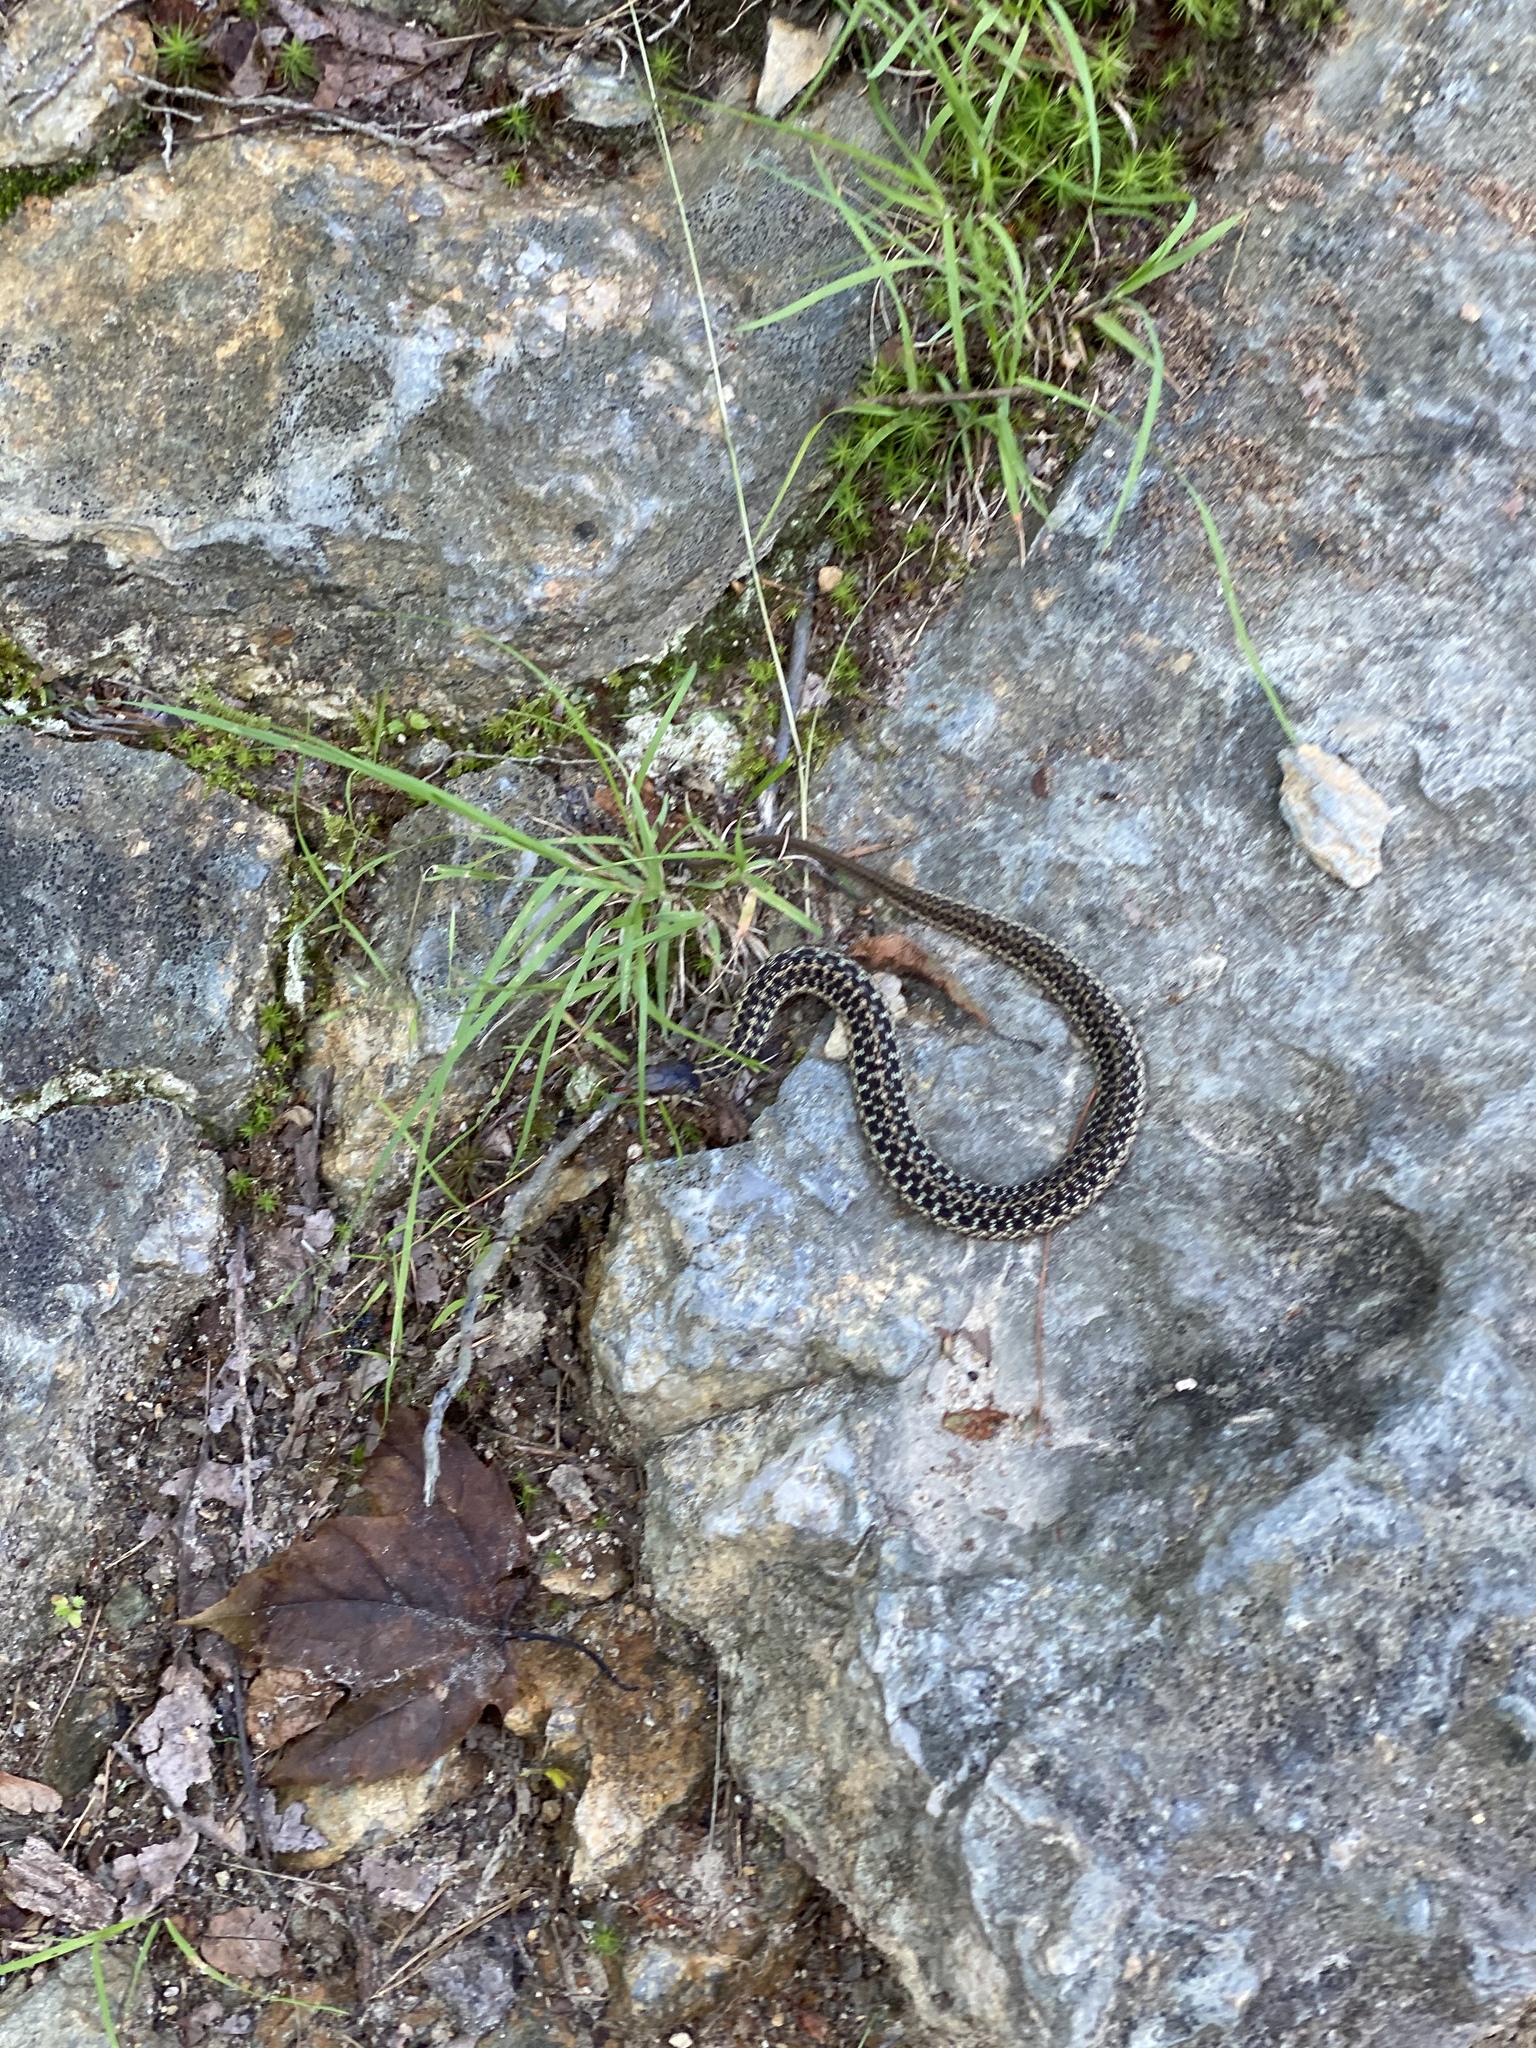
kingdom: Animalia
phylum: Chordata
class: Squamata
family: Colubridae
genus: Thamnophis
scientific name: Thamnophis sirtalis
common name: Common garter snake
